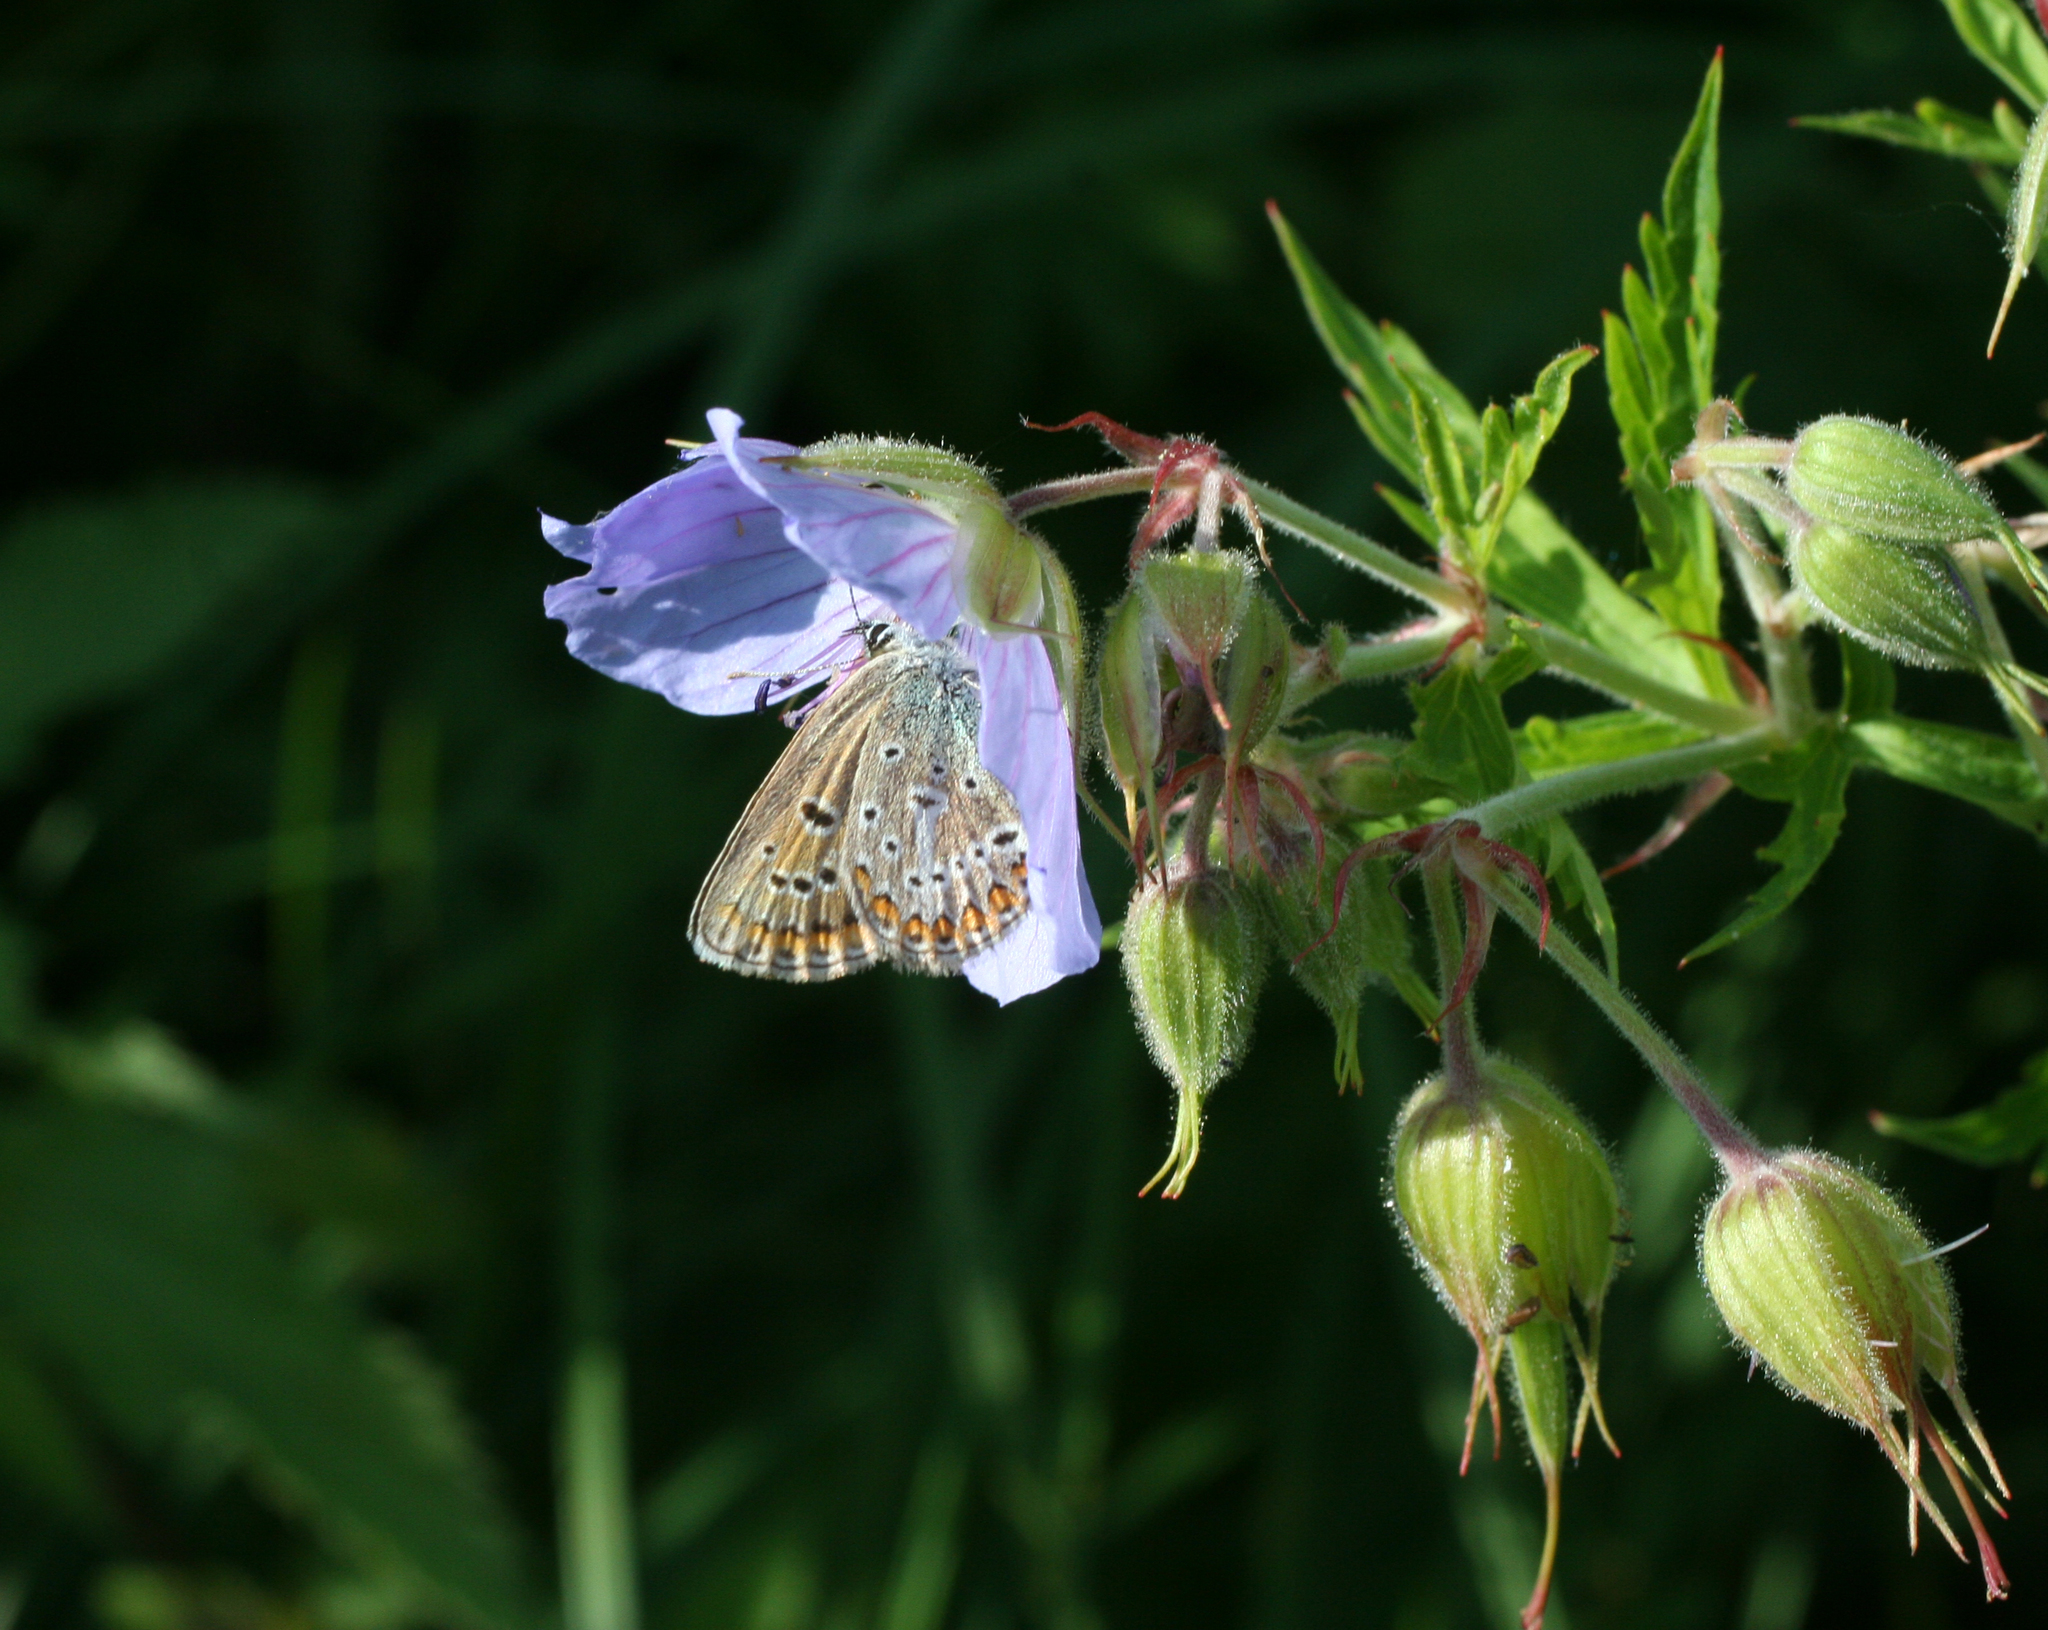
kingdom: Plantae
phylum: Tracheophyta
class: Magnoliopsida
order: Geraniales
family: Geraniaceae
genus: Geranium
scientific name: Geranium pratense
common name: Meadow crane's-bill
